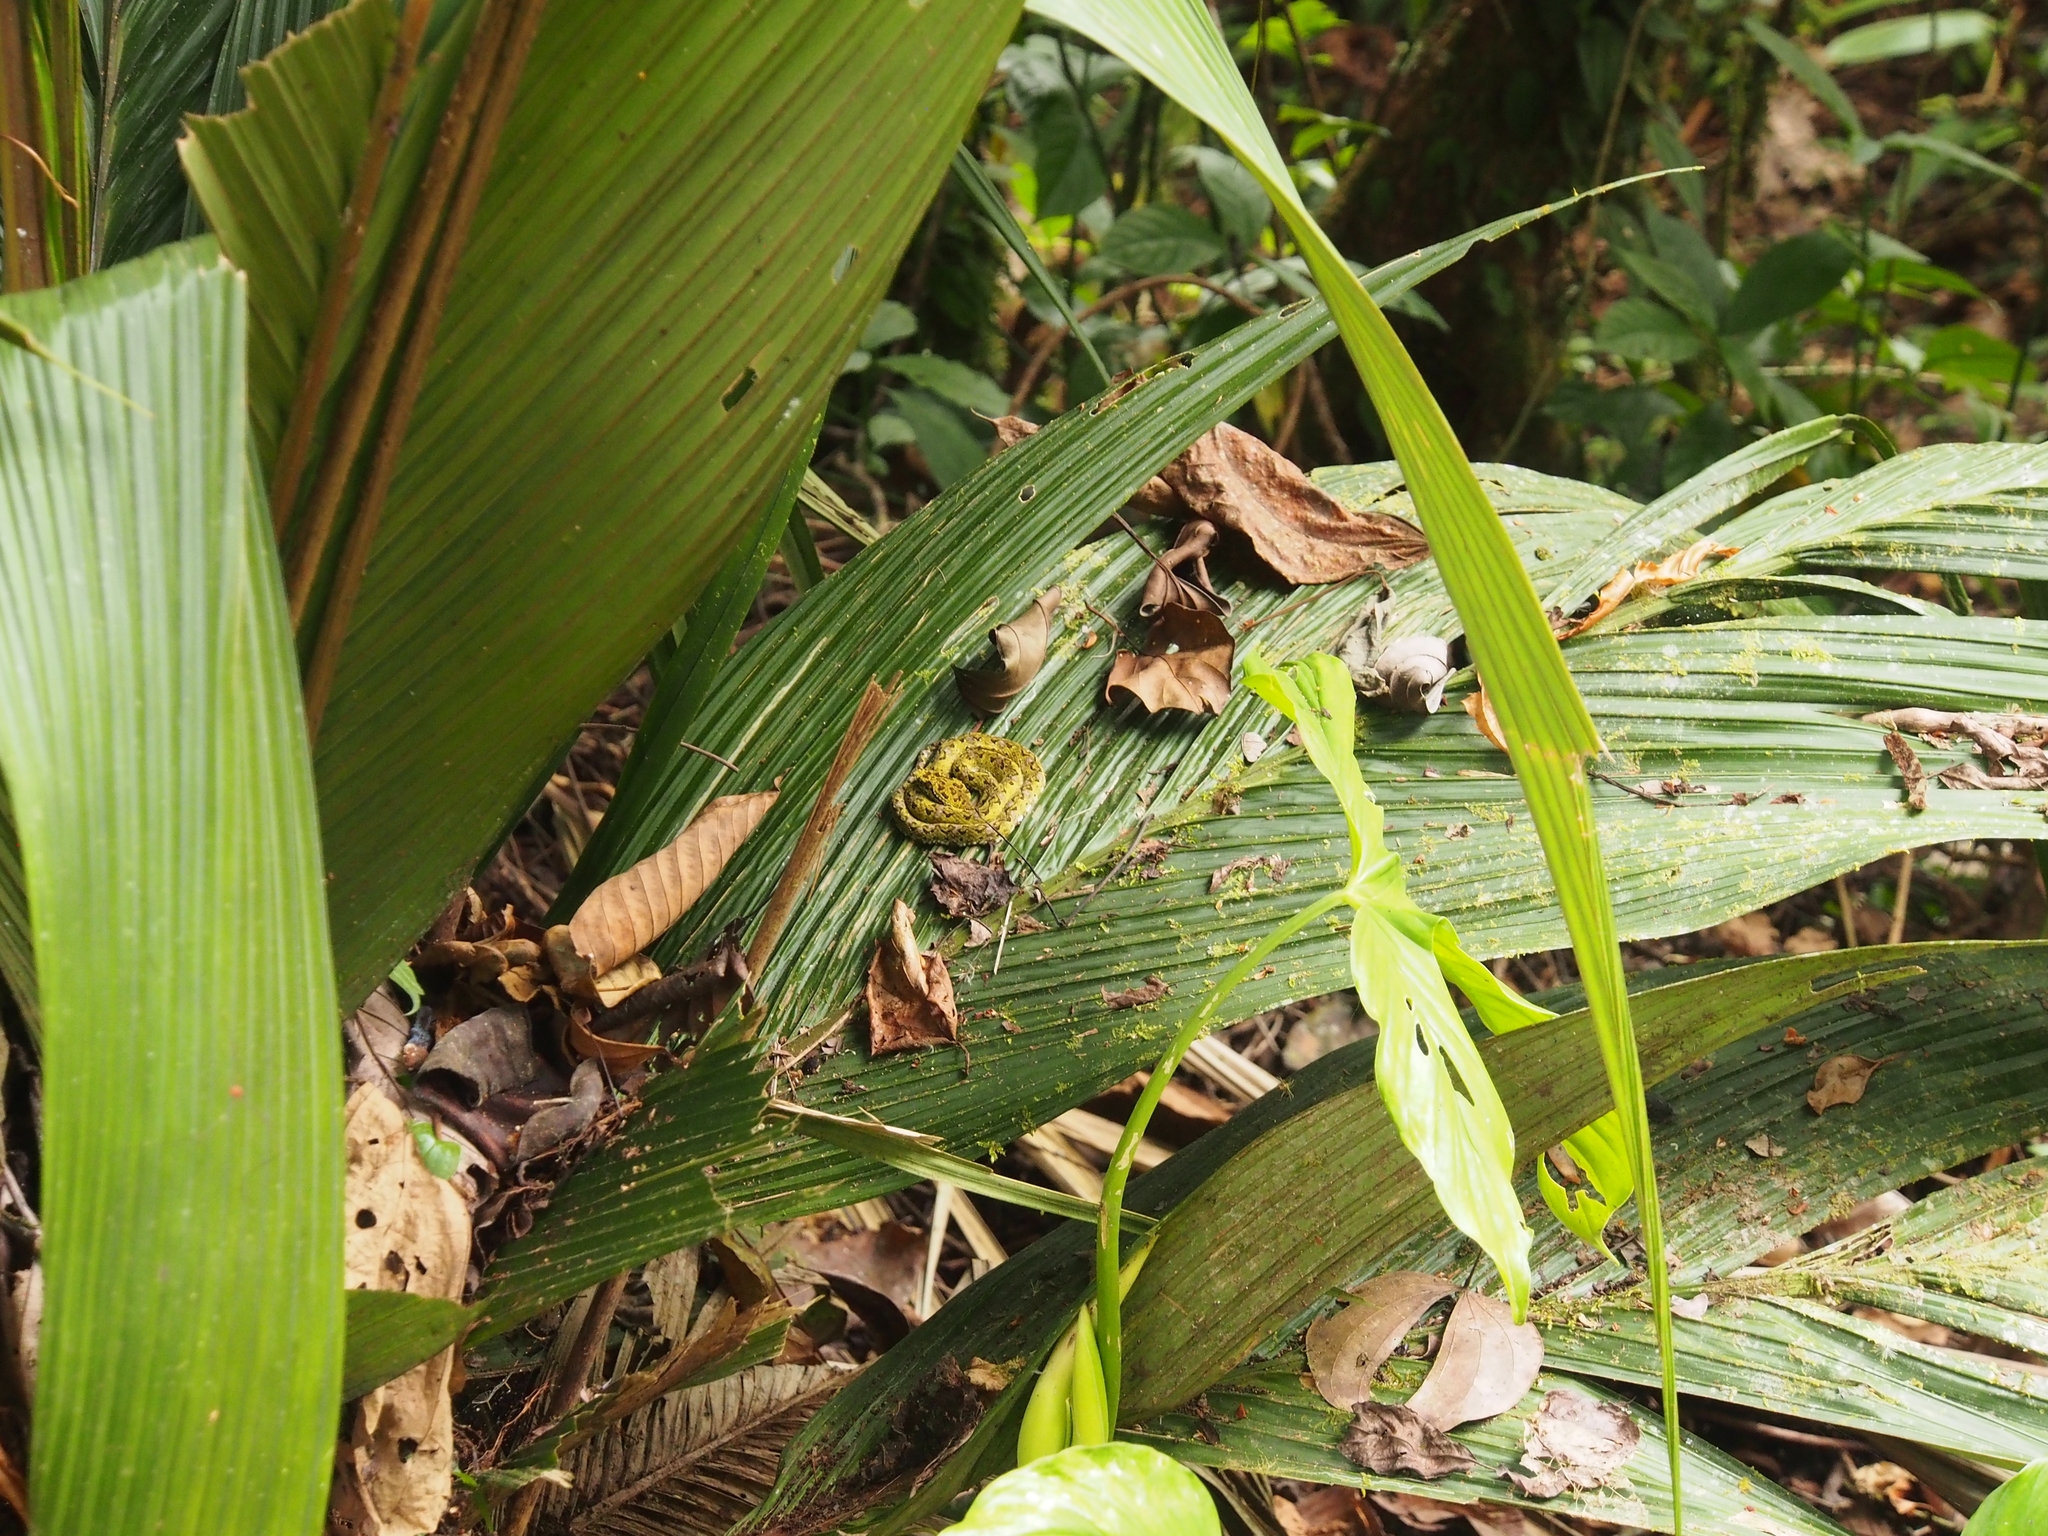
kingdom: Animalia
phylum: Chordata
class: Squamata
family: Viperidae
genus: Bothriechis
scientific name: Bothriechis schlegelii
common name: Eyelash viper
